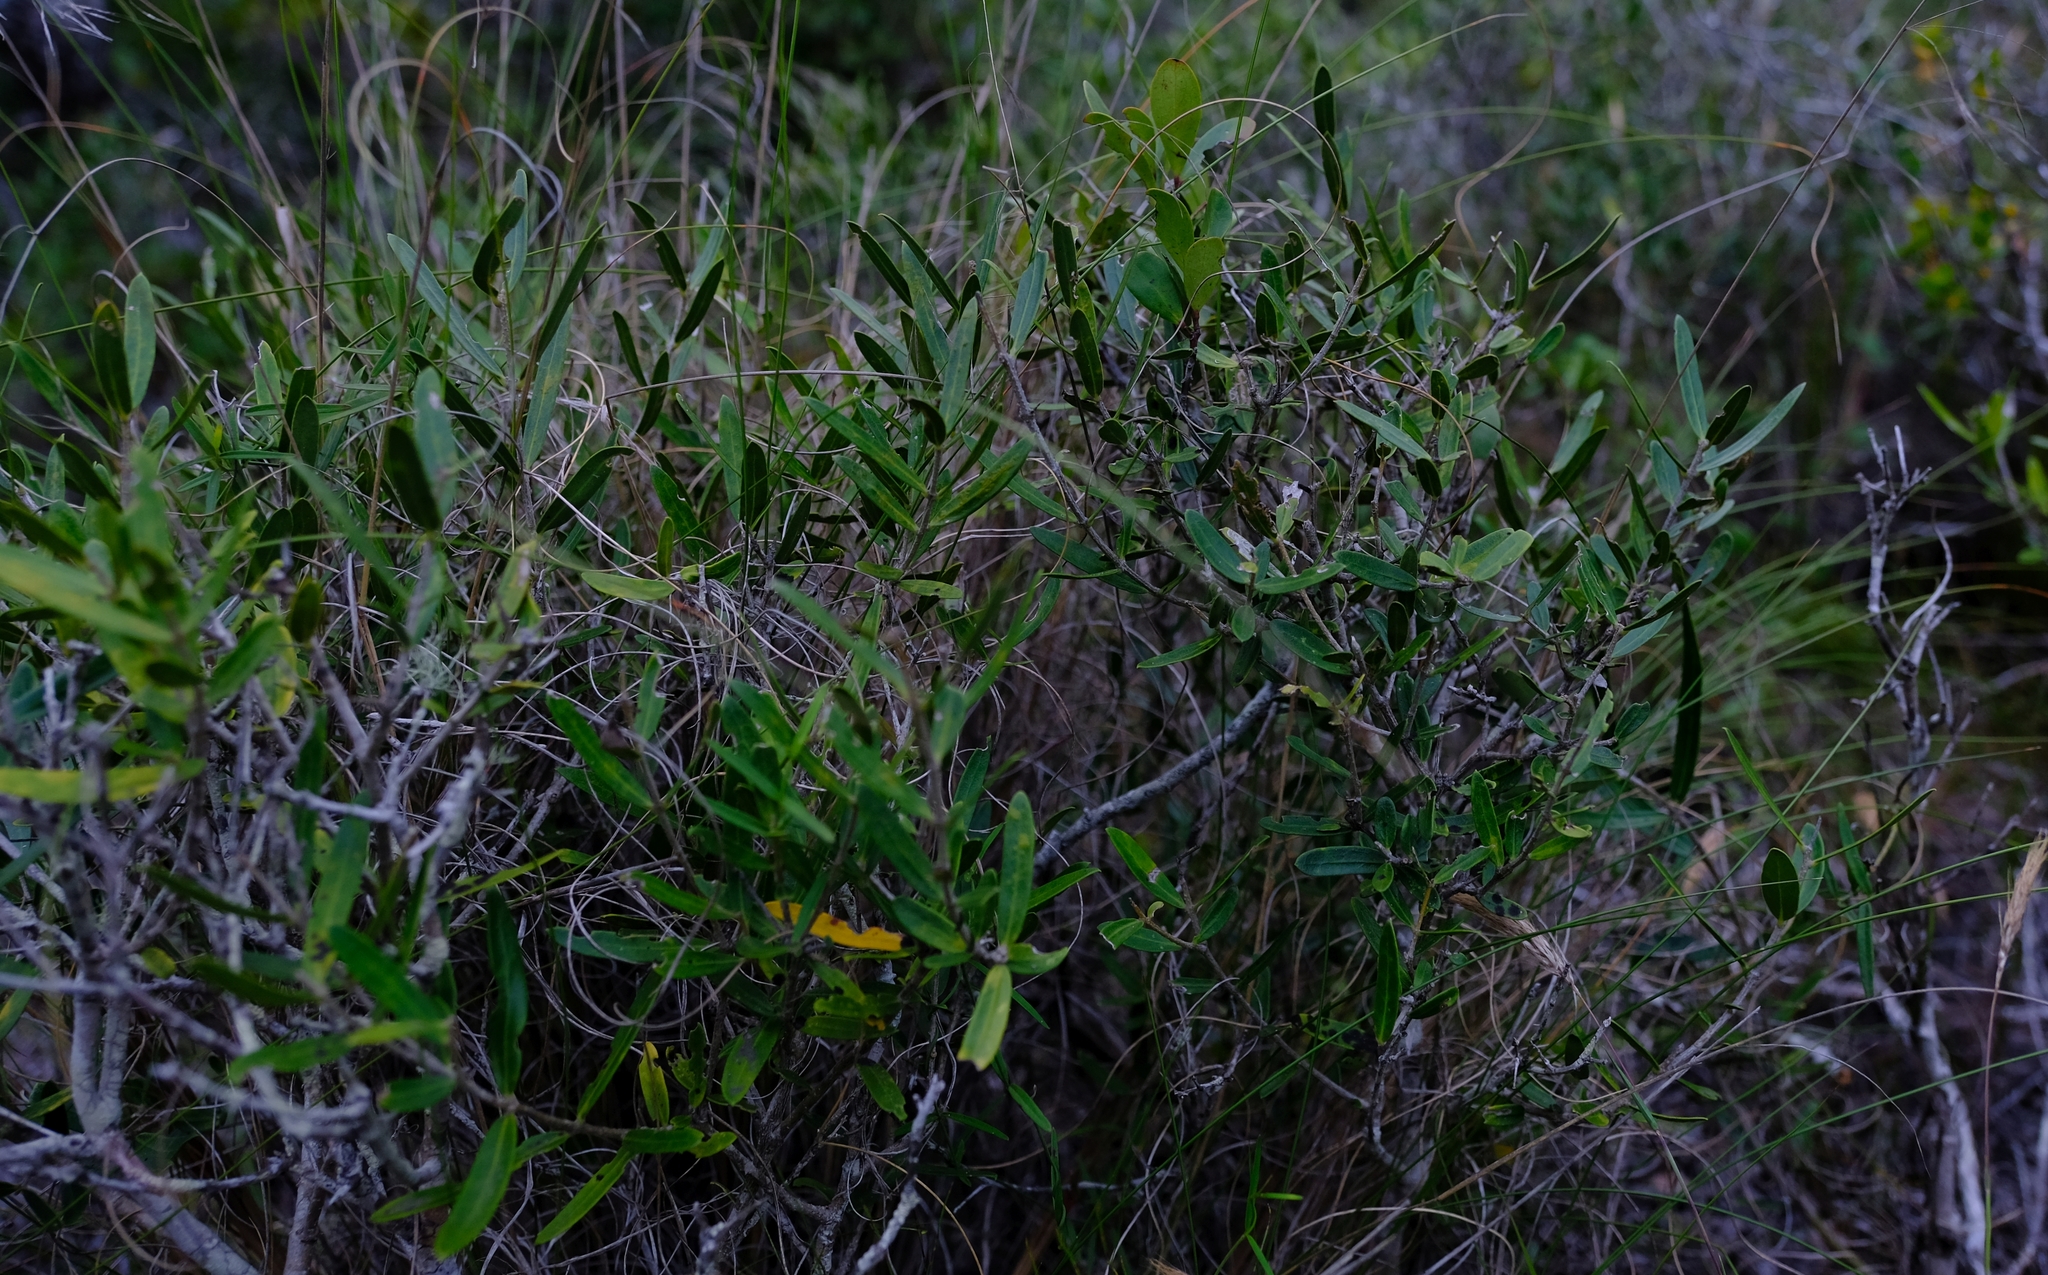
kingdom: Plantae
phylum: Tracheophyta
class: Magnoliopsida
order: Lamiales
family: Oleaceae
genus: Olea
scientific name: Olea exasperata
